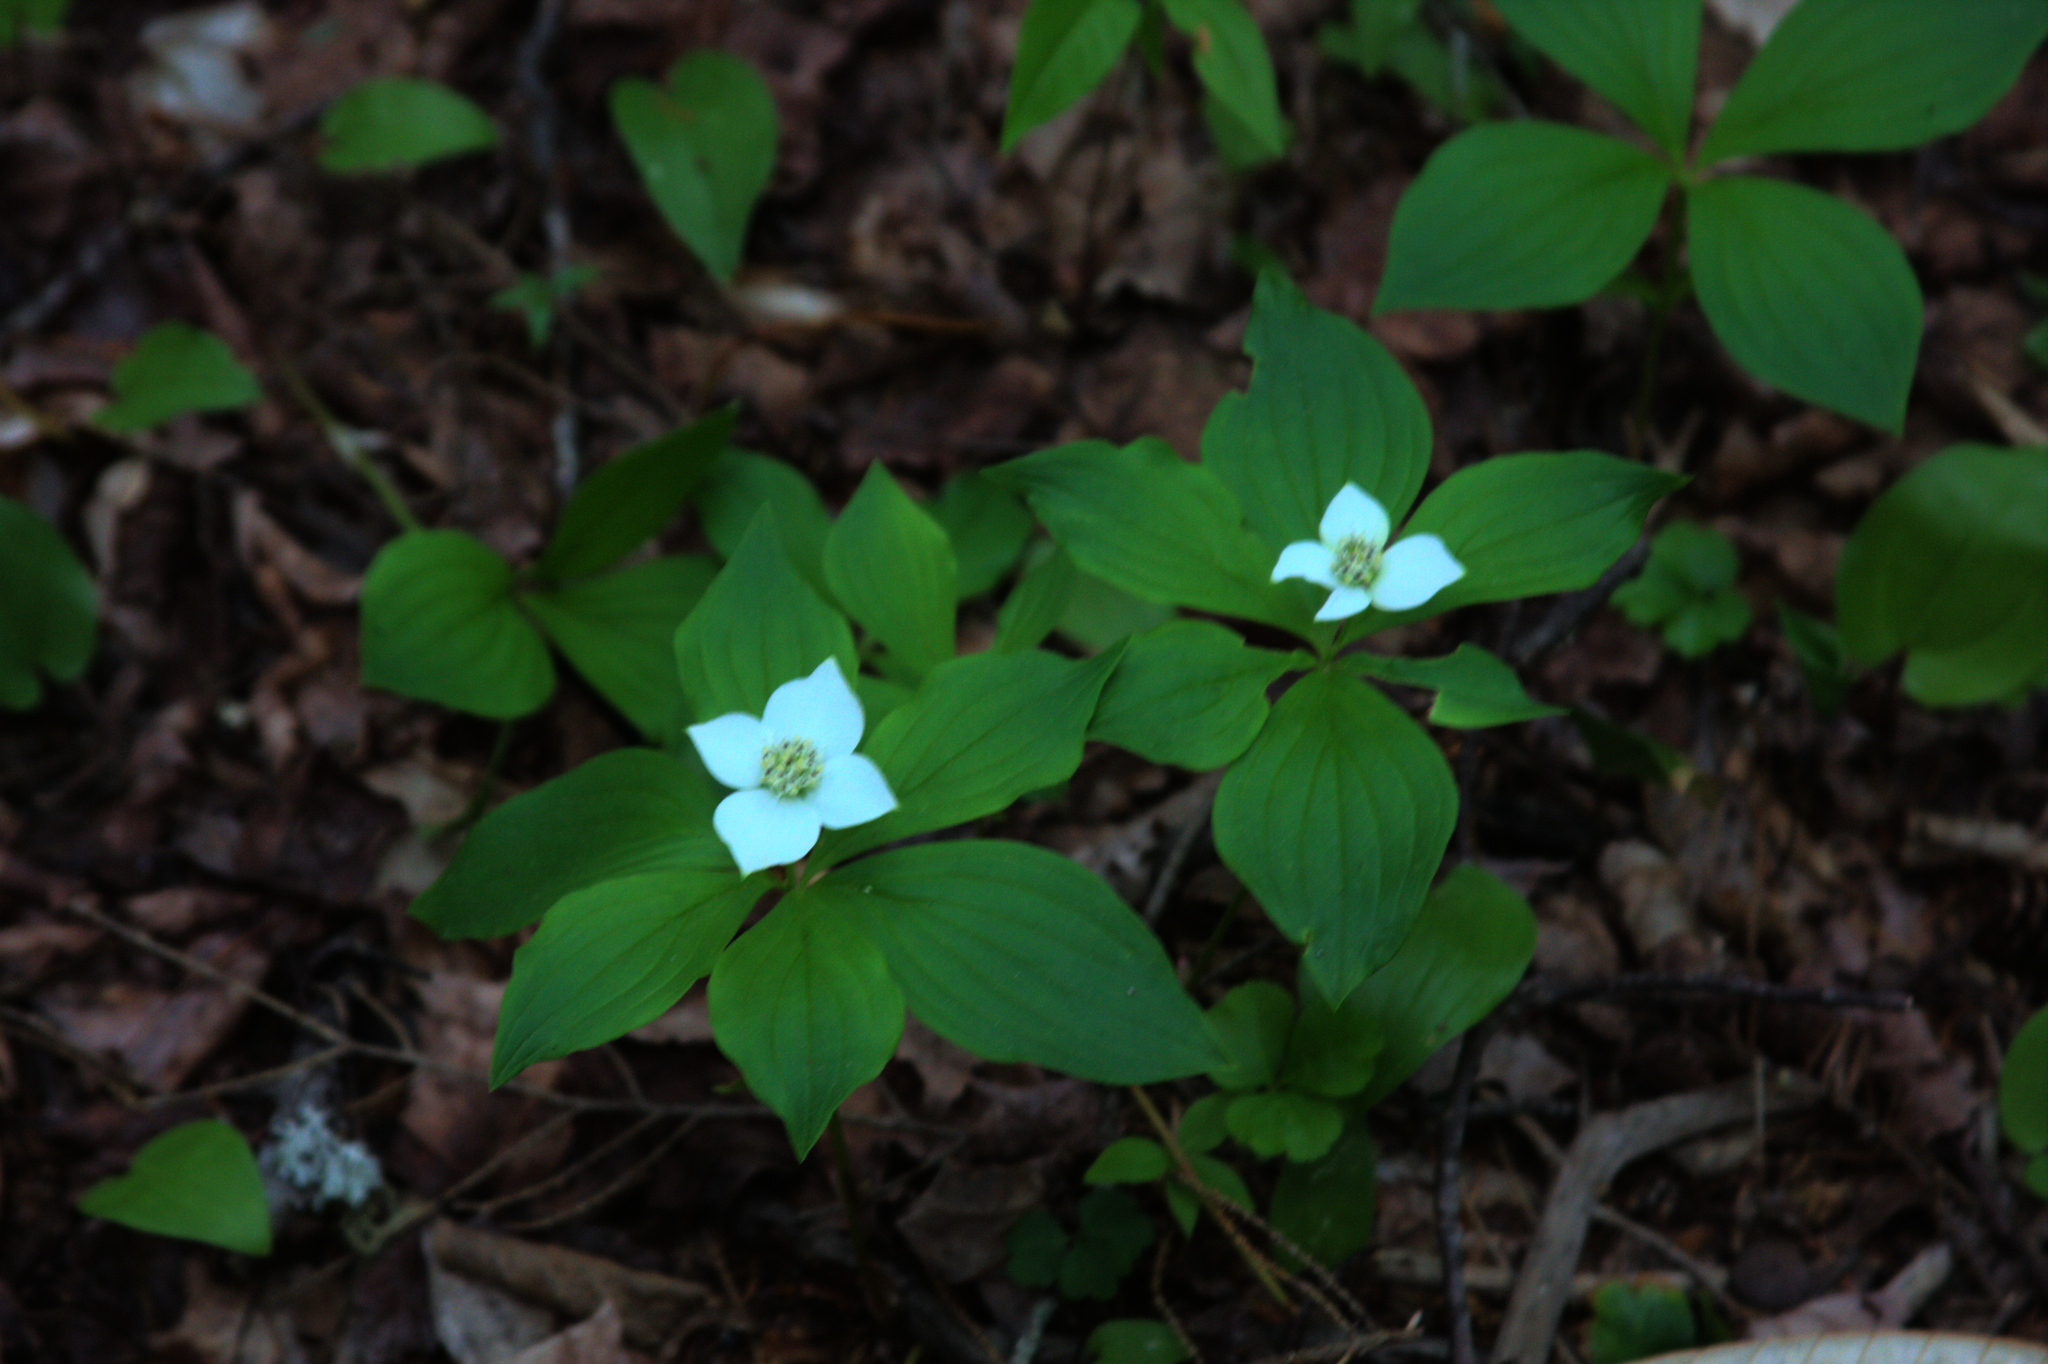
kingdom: Plantae
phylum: Tracheophyta
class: Magnoliopsida
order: Cornales
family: Cornaceae
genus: Cornus
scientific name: Cornus canadensis
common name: Creeping dogwood
